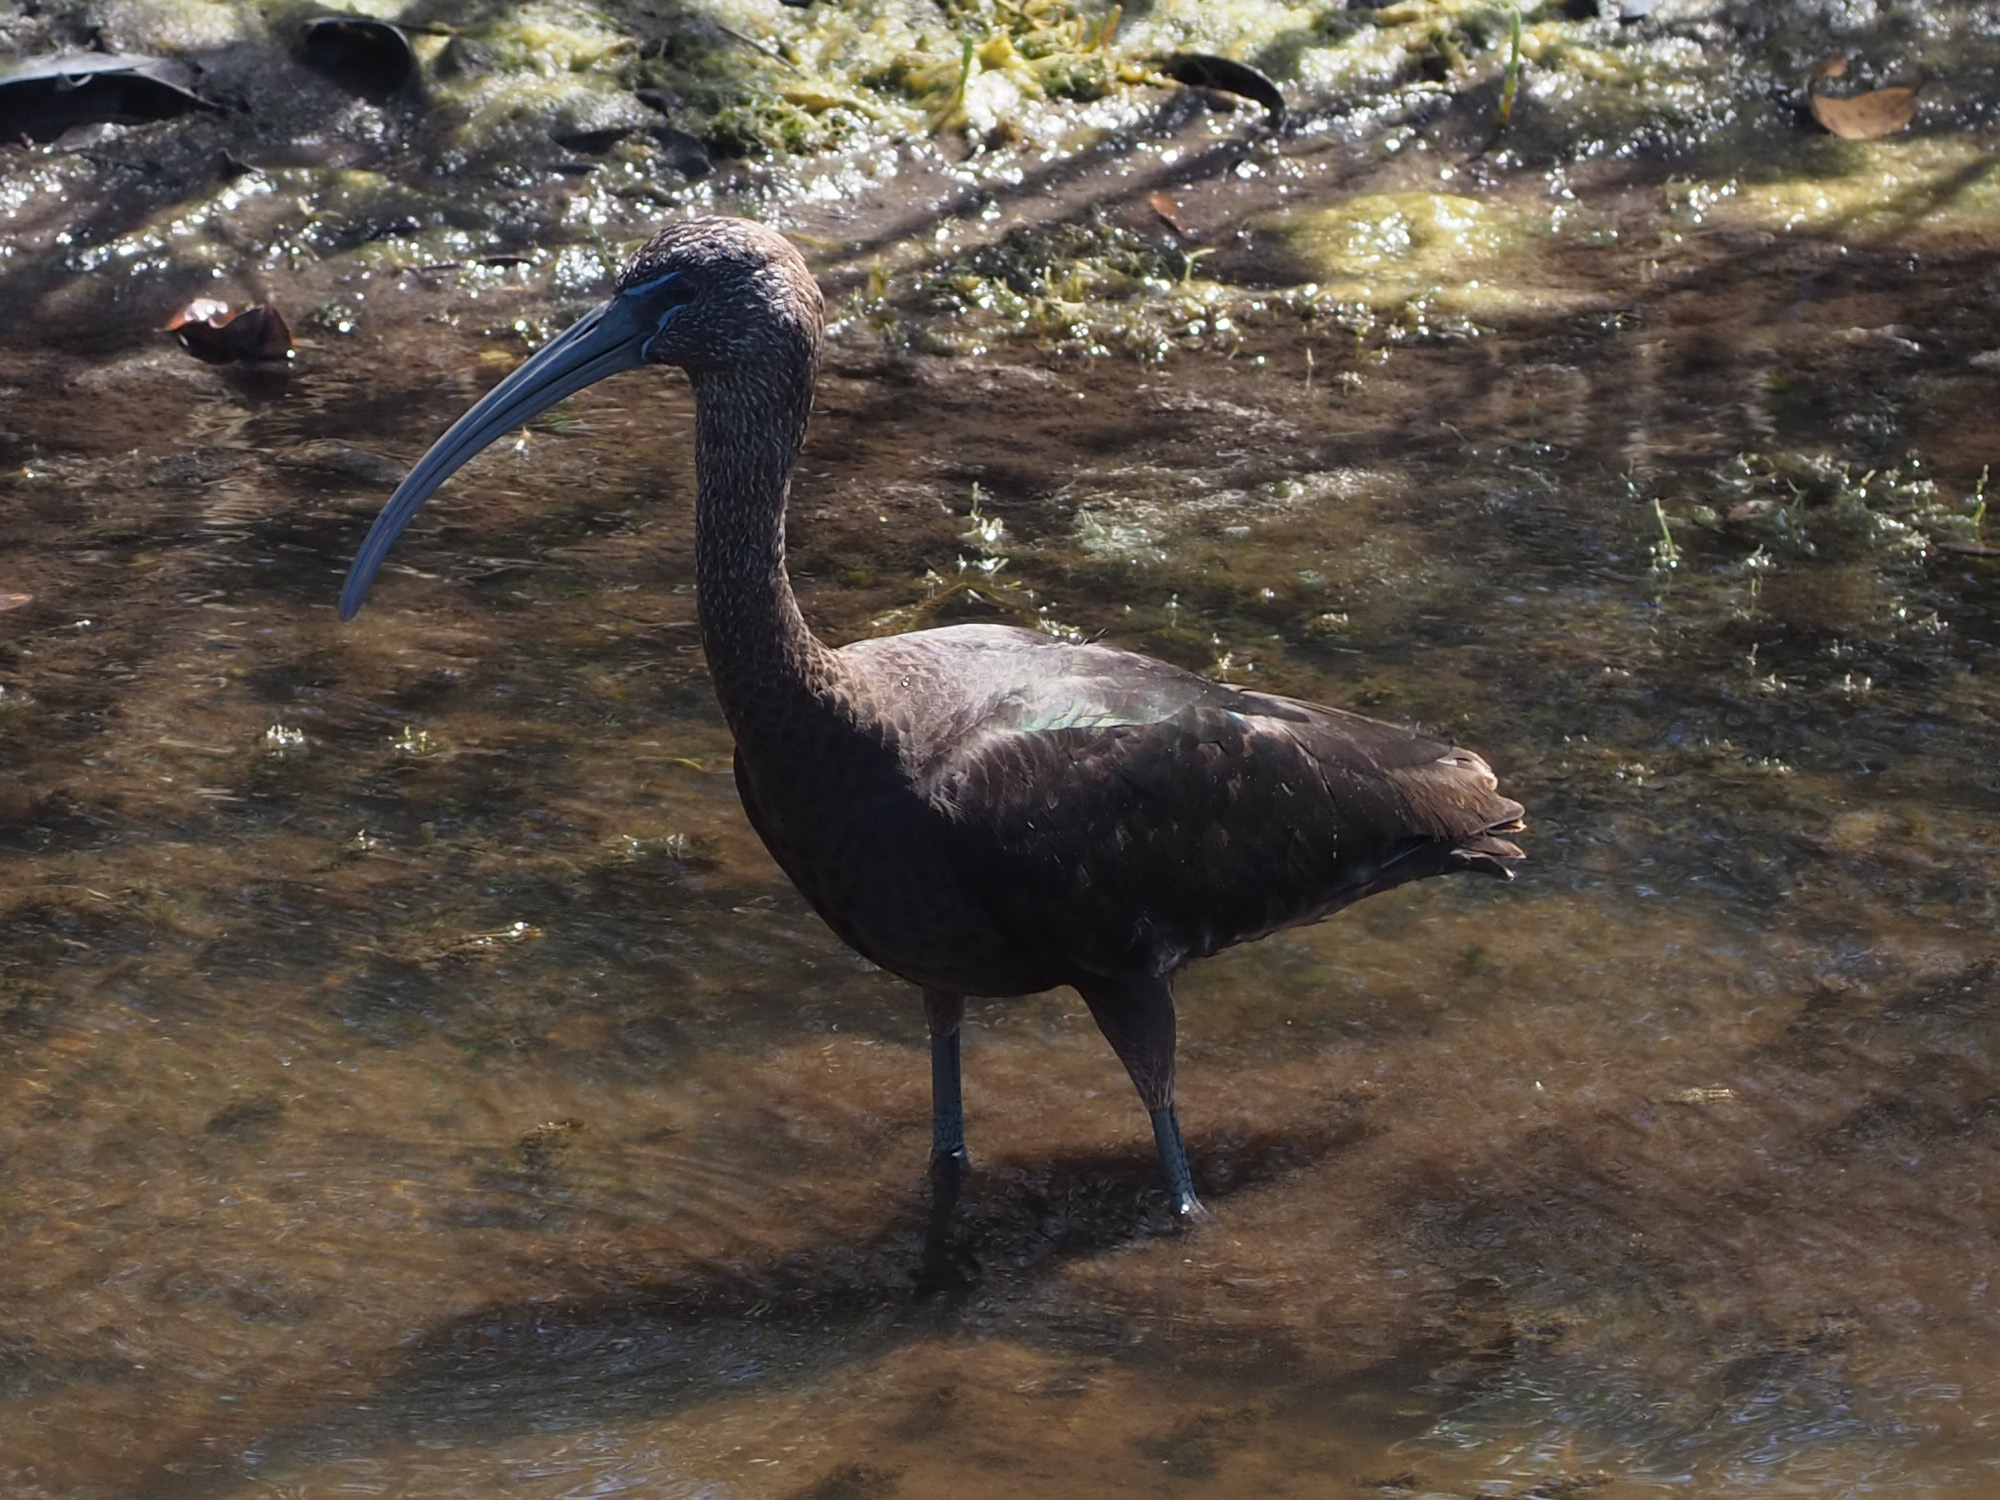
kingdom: Animalia
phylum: Chordata
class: Aves
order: Pelecaniformes
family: Threskiornithidae
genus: Plegadis
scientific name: Plegadis falcinellus
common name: Glossy ibis
